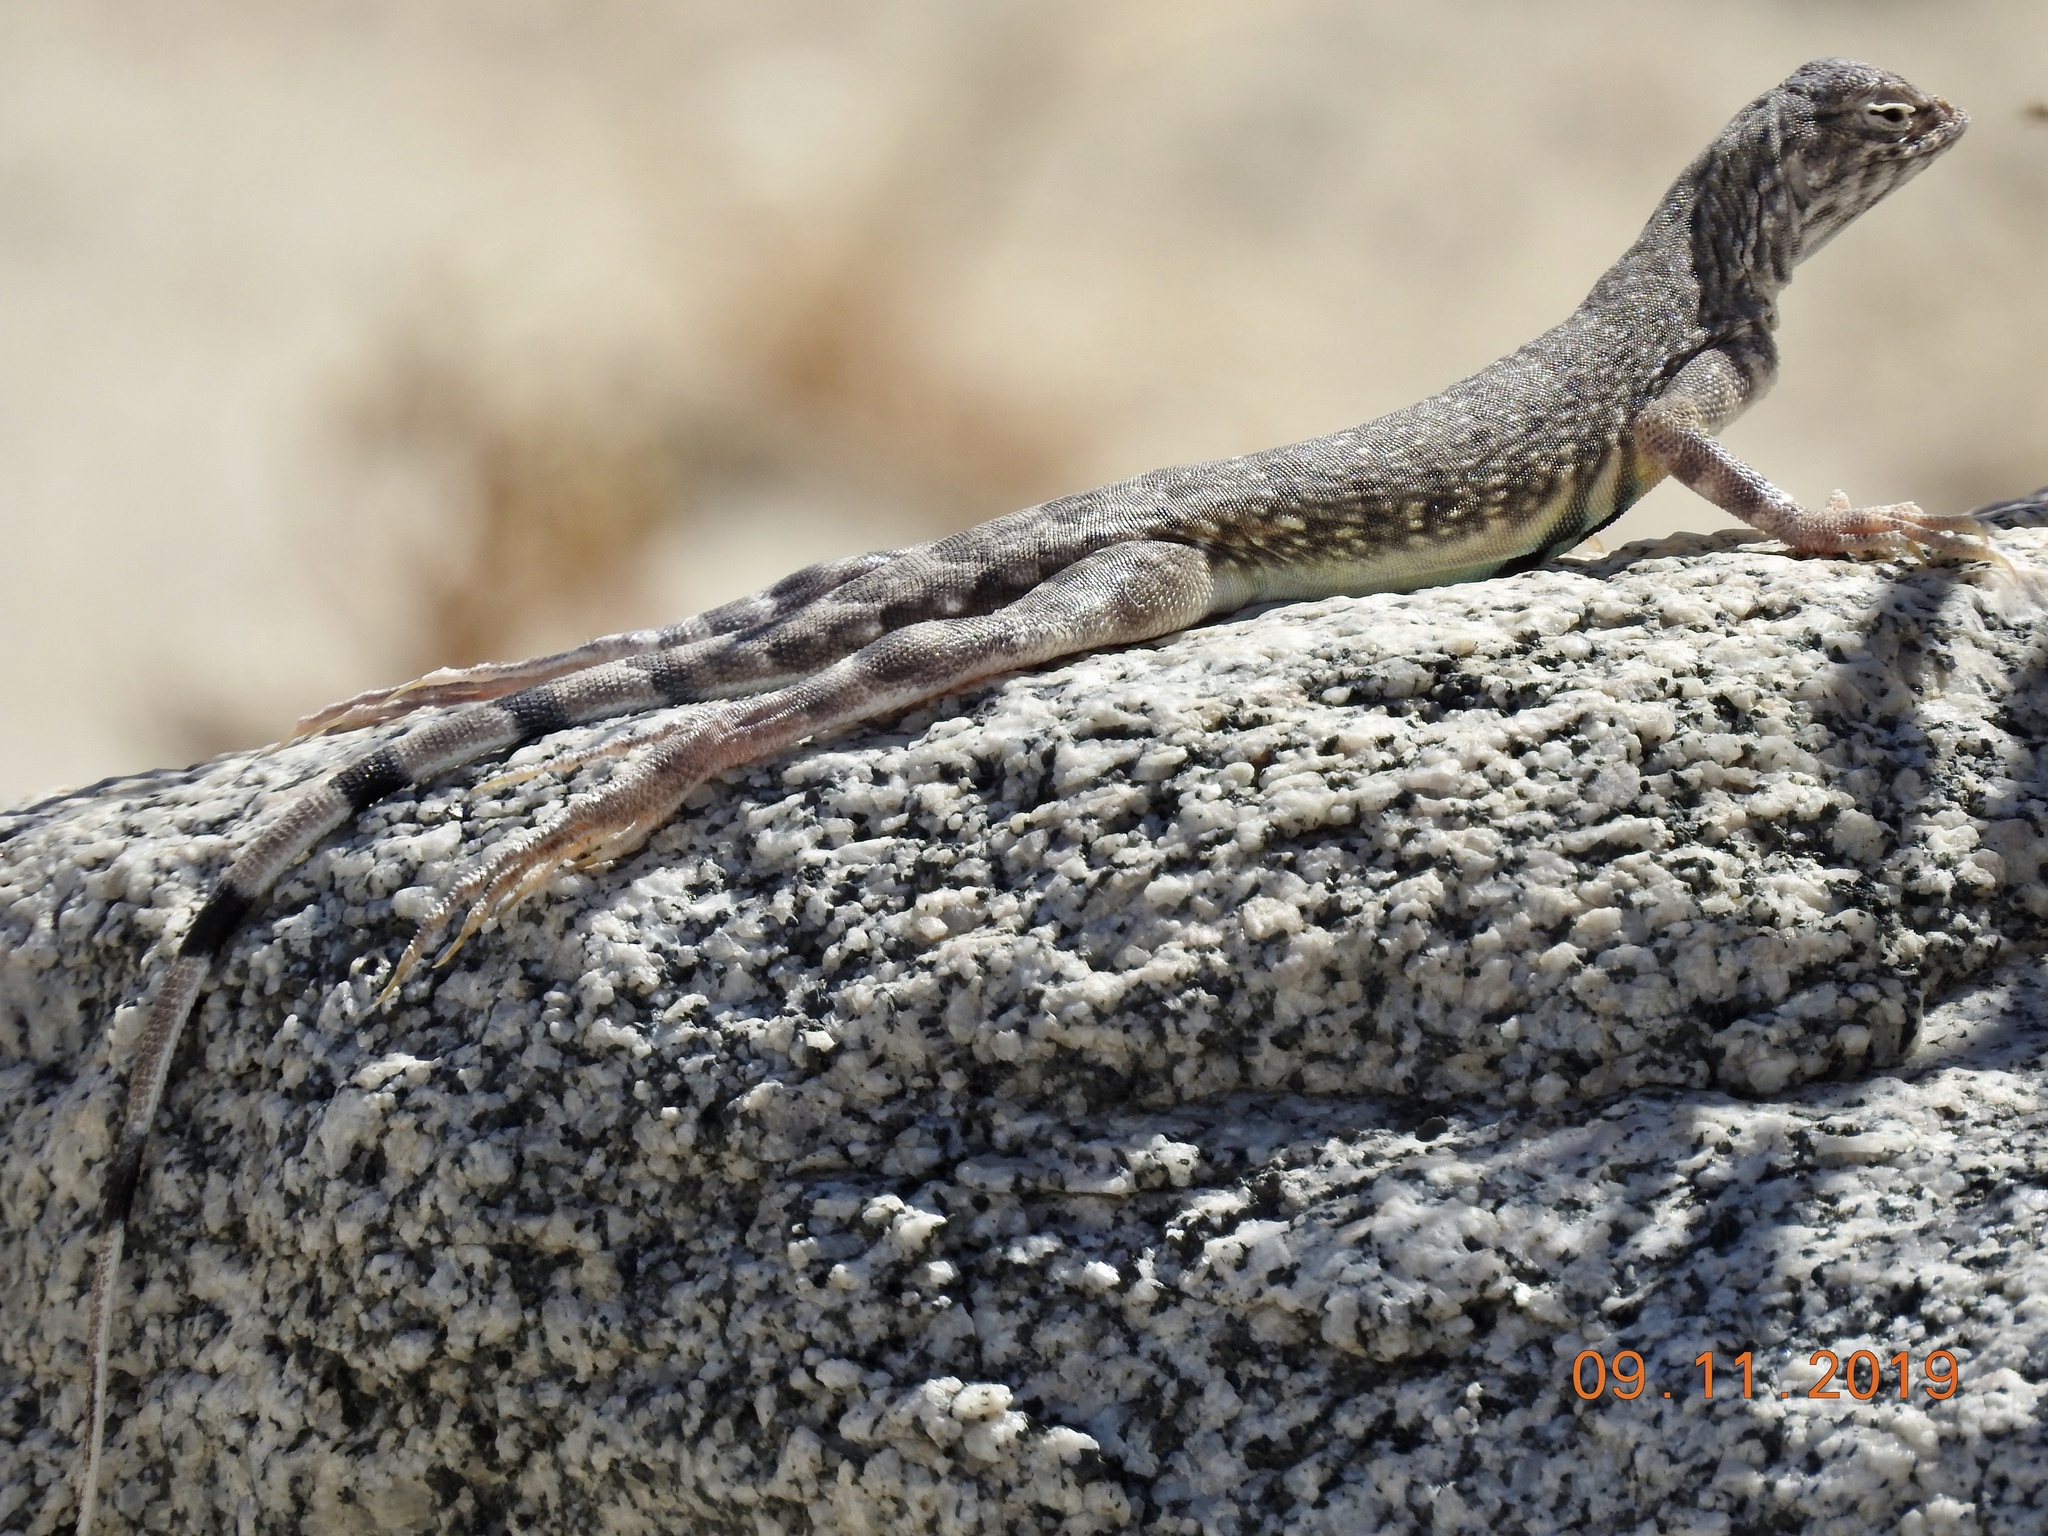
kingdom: Animalia
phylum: Chordata
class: Squamata
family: Phrynosomatidae
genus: Callisaurus
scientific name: Callisaurus draconoides
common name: Zebra-tailed lizard
